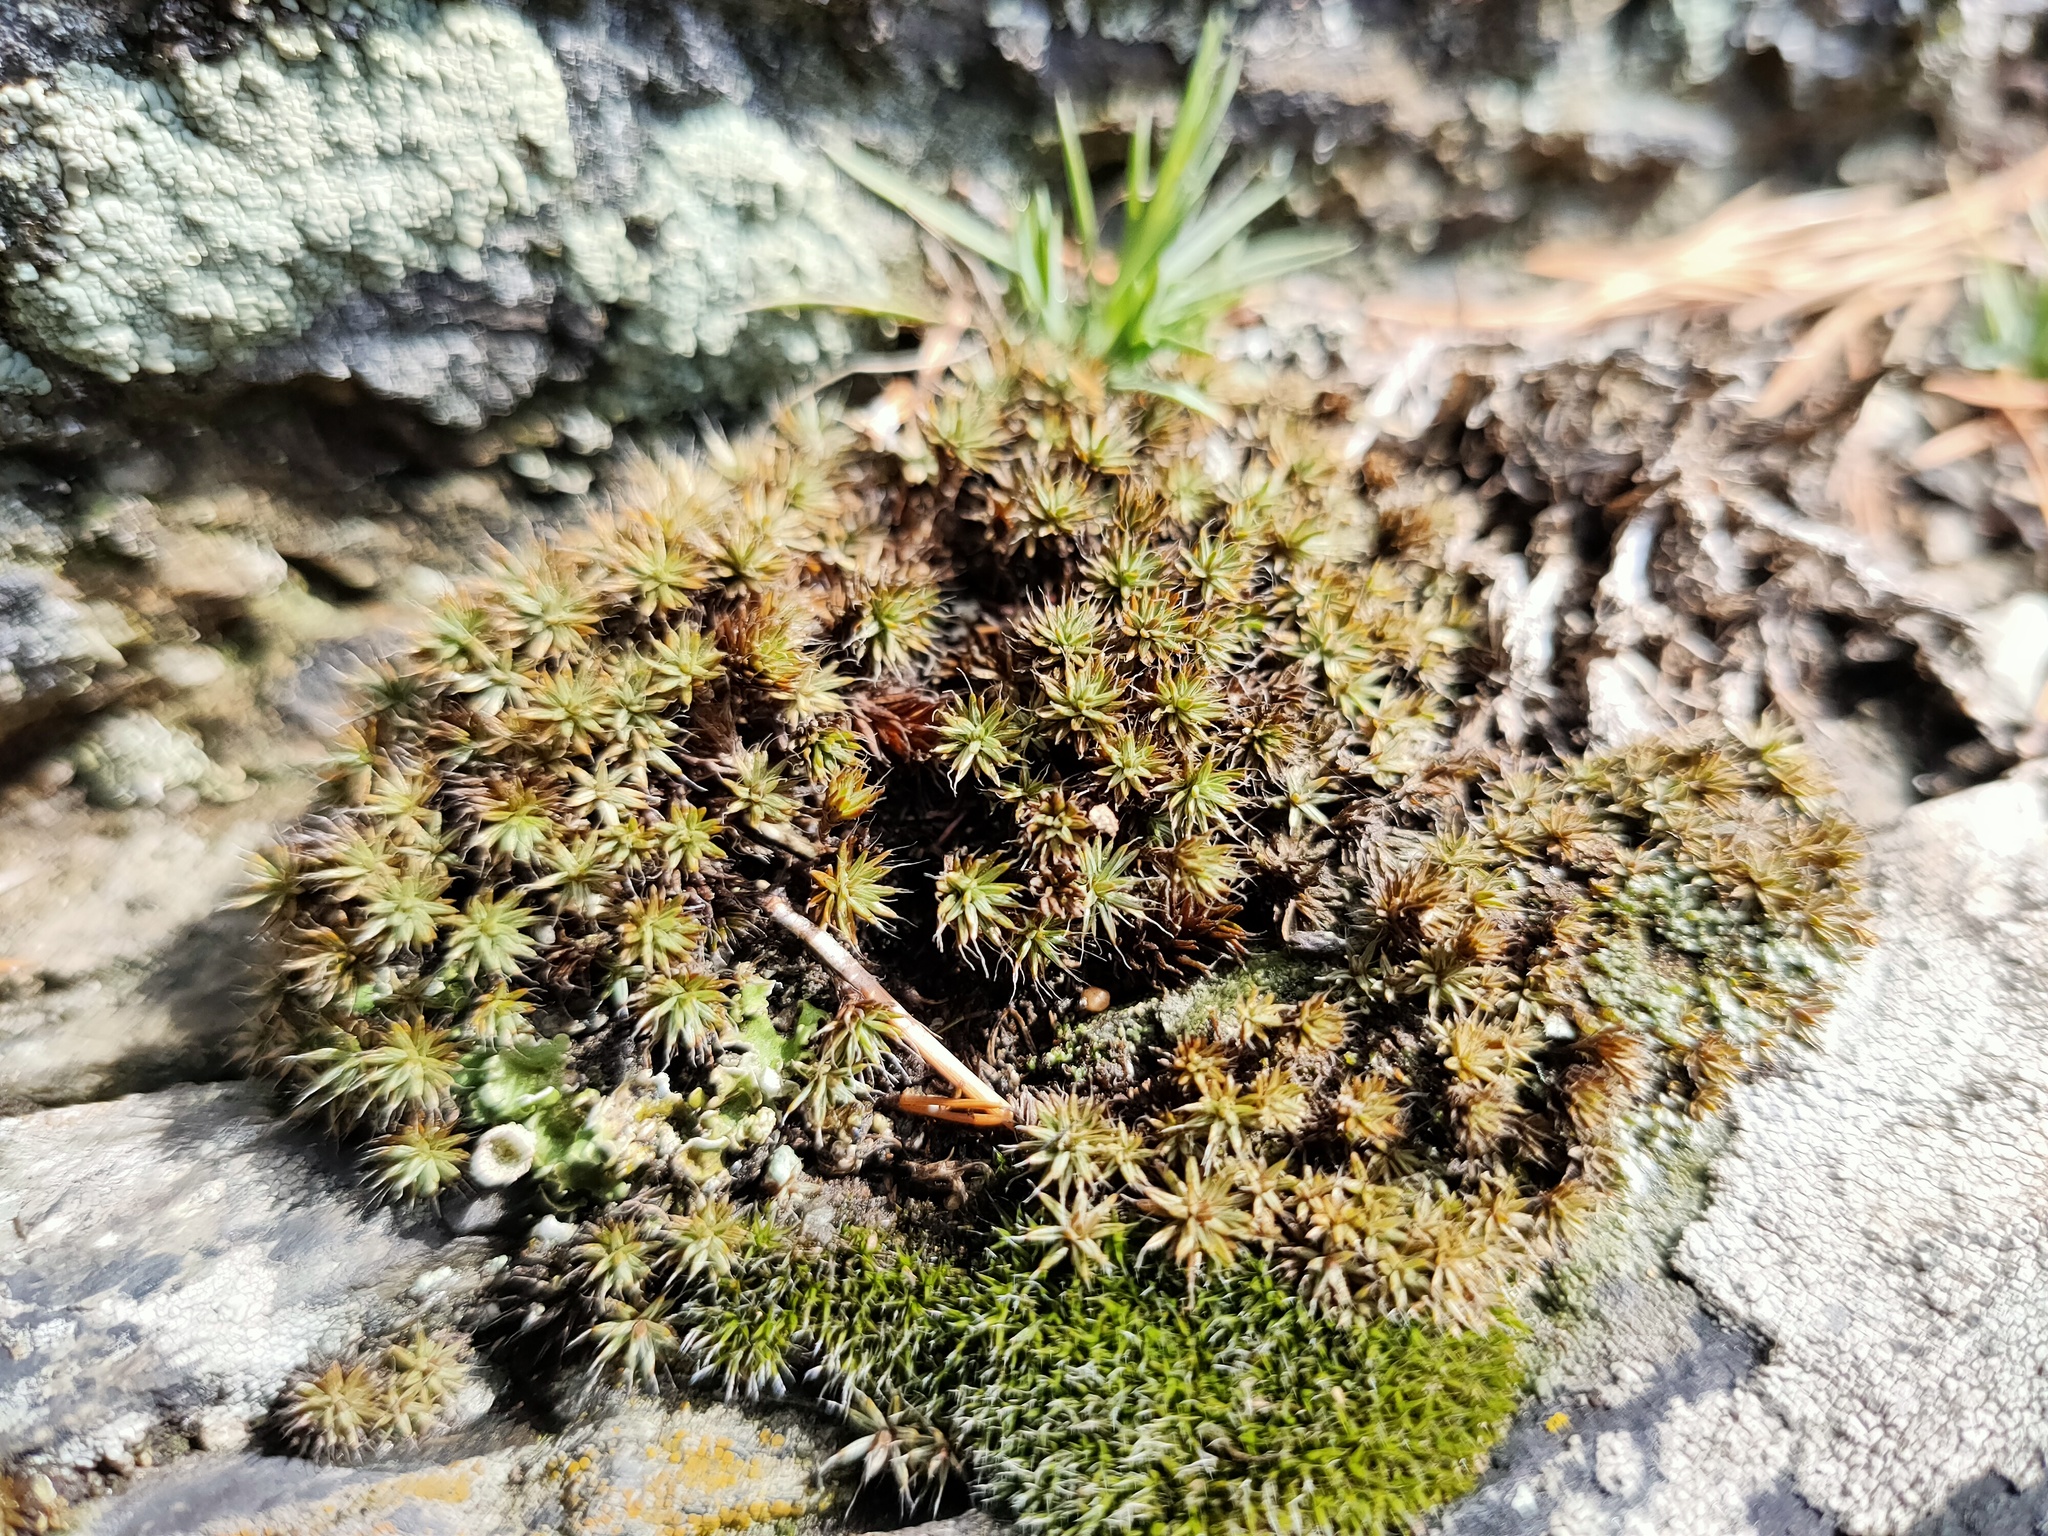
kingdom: Plantae
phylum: Bryophyta
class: Polytrichopsida
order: Polytrichales
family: Polytrichaceae
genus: Polytrichum
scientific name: Polytrichum piliferum
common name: Bristly haircap
